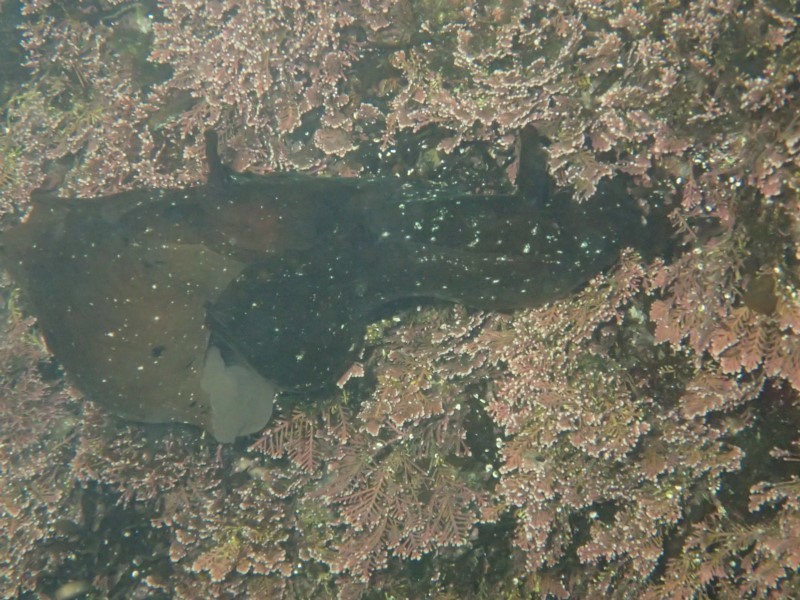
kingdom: Animalia
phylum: Mollusca
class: Gastropoda
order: Aplysiida
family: Aplysiidae
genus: Aplysia
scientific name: Aplysia juliana
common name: Walking sea hare
